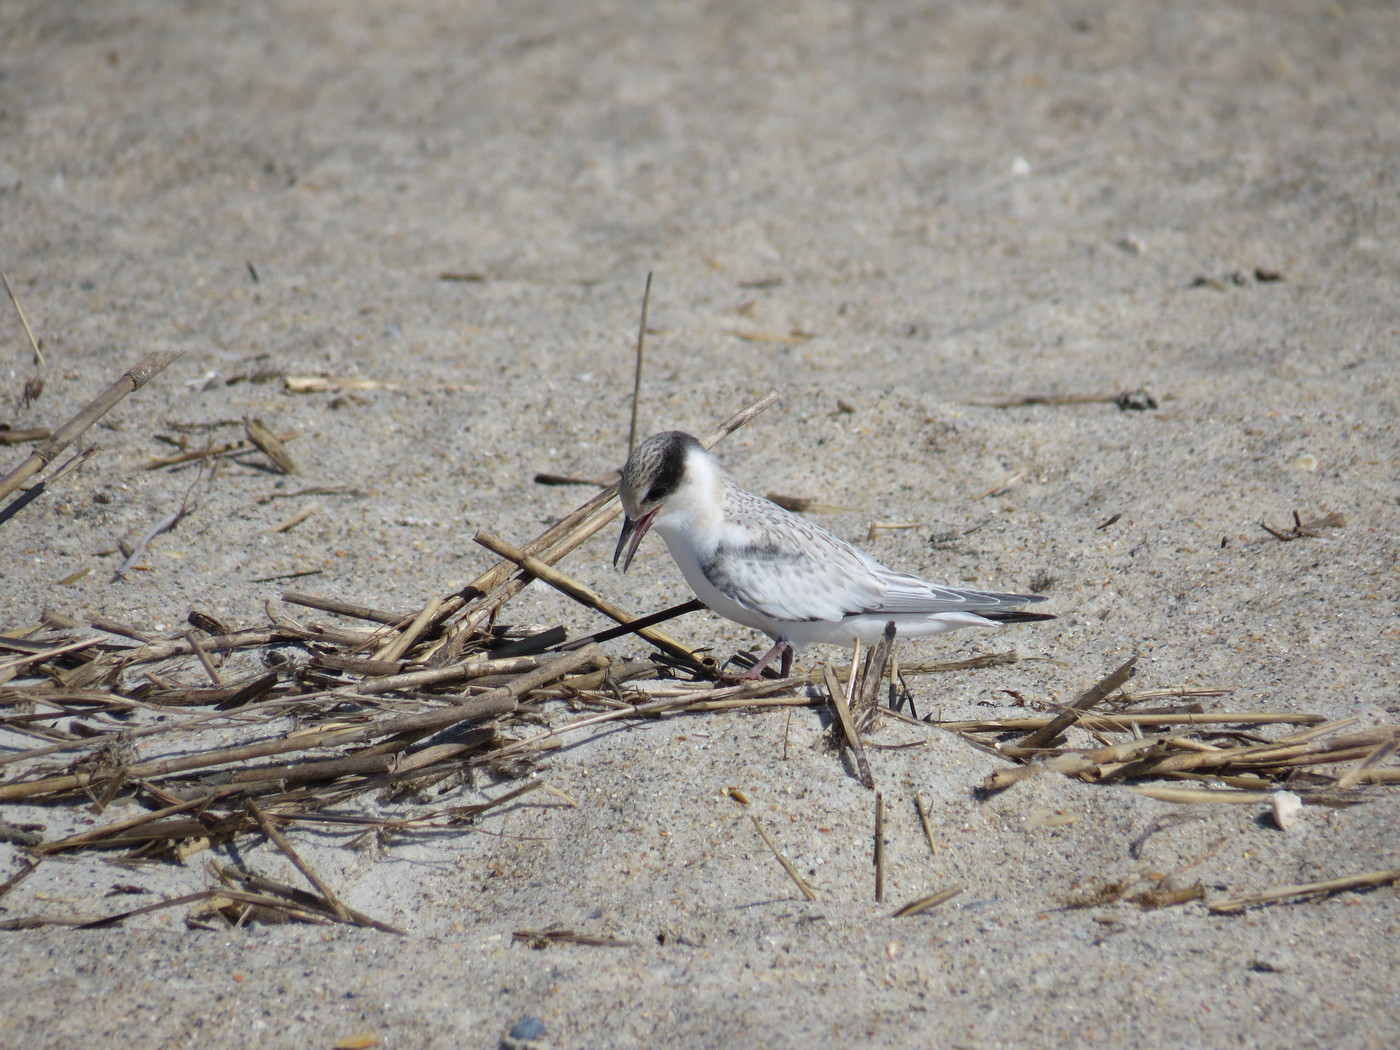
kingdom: Animalia
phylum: Chordata
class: Aves
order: Charadriiformes
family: Laridae
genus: Sternula
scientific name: Sternula antillarum
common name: Least tern
